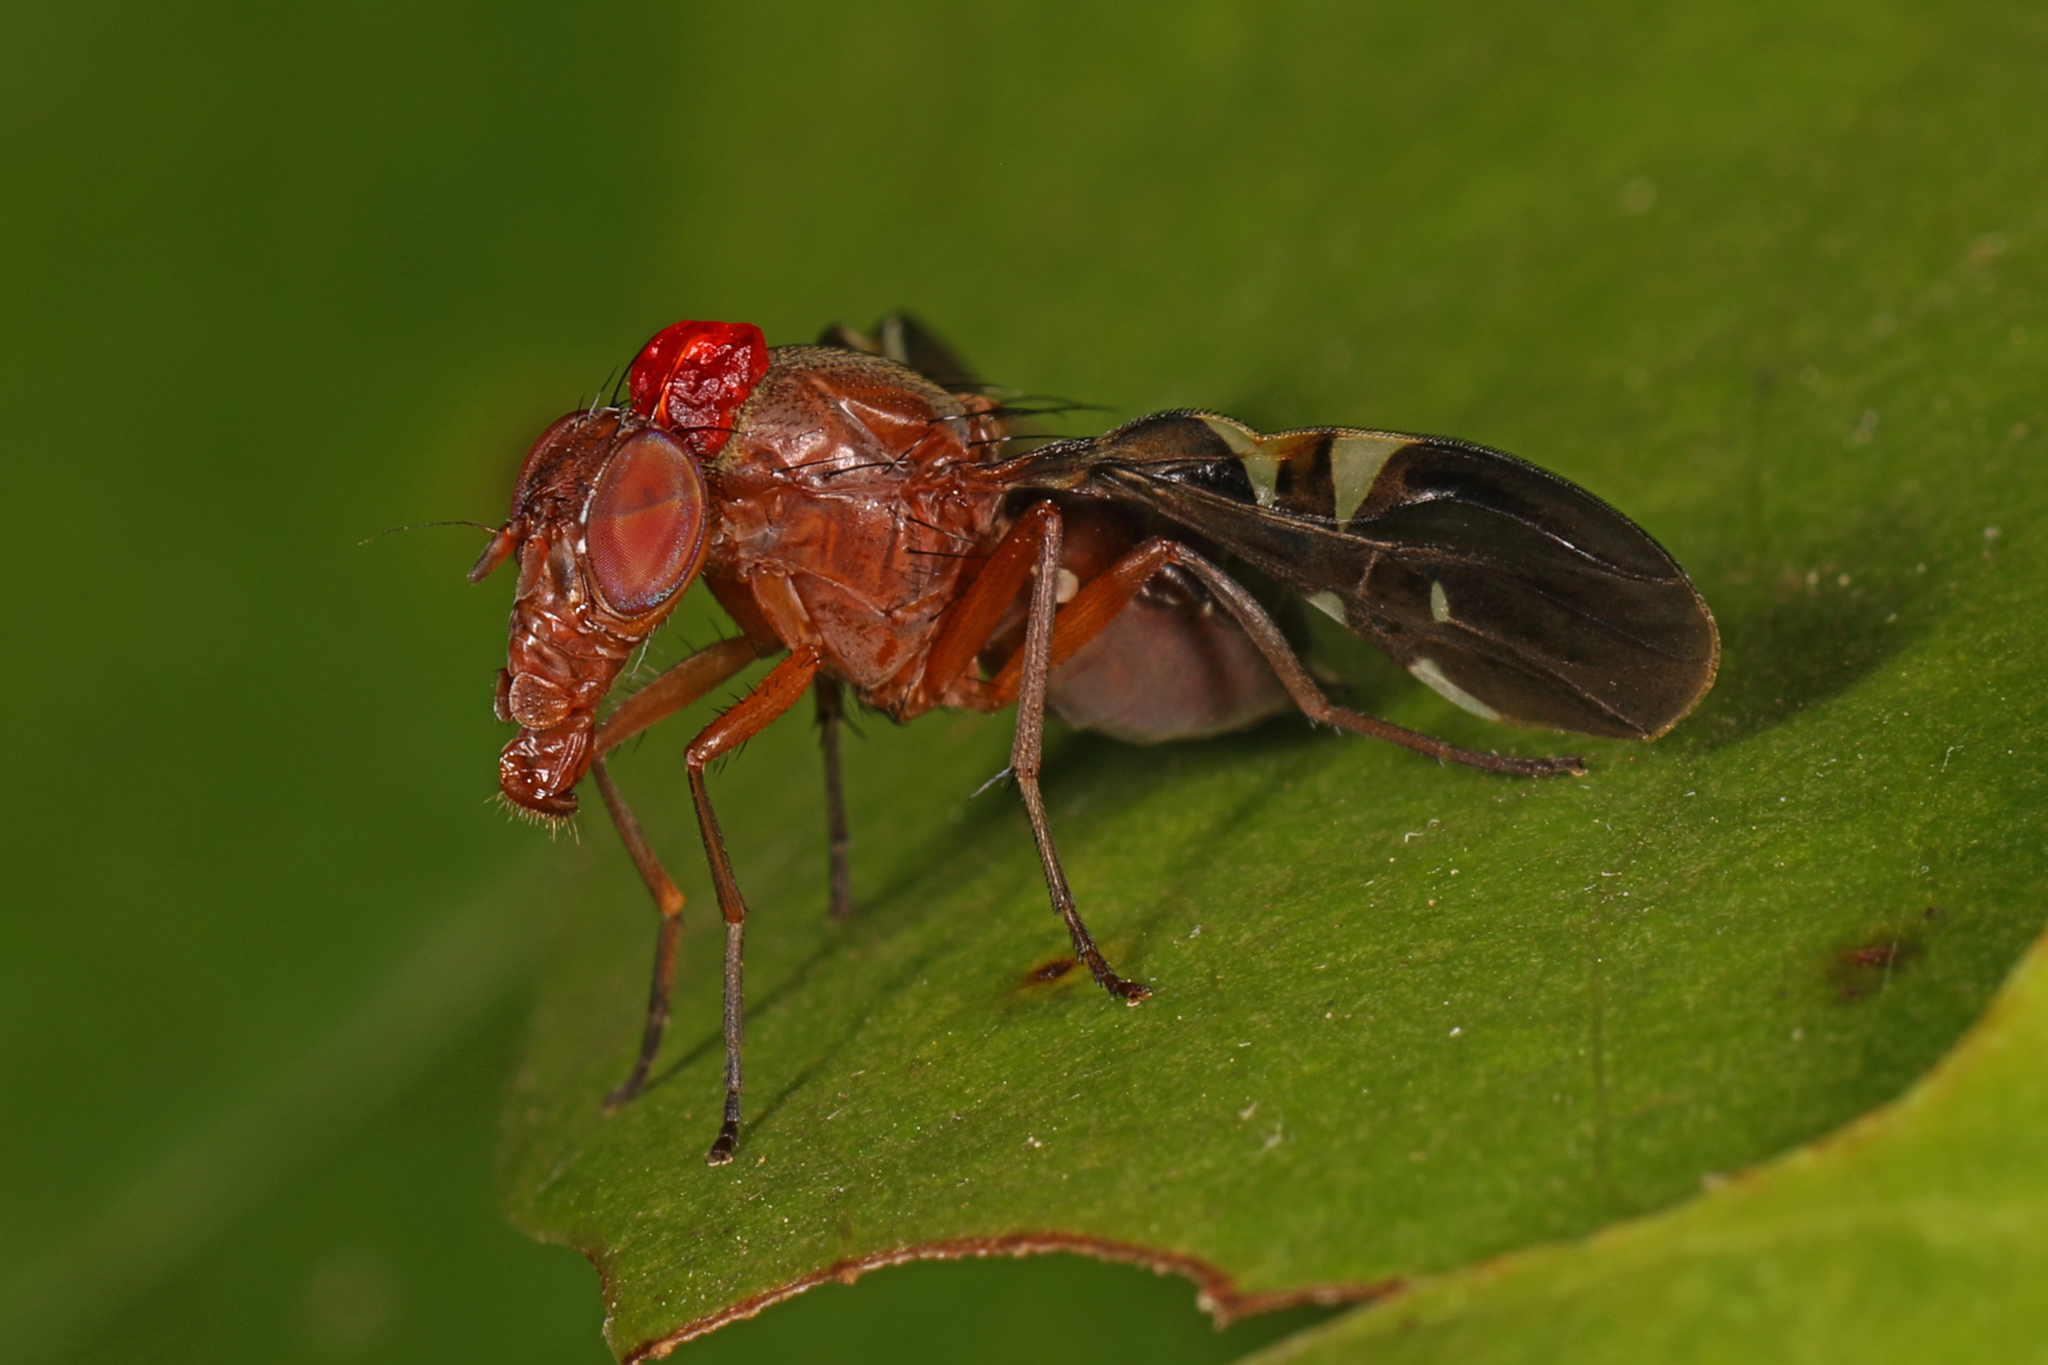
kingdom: Animalia
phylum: Arthropoda
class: Insecta
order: Diptera
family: Ulidiidae
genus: Delphinia
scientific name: Delphinia picta
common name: Common picture-winged fly
